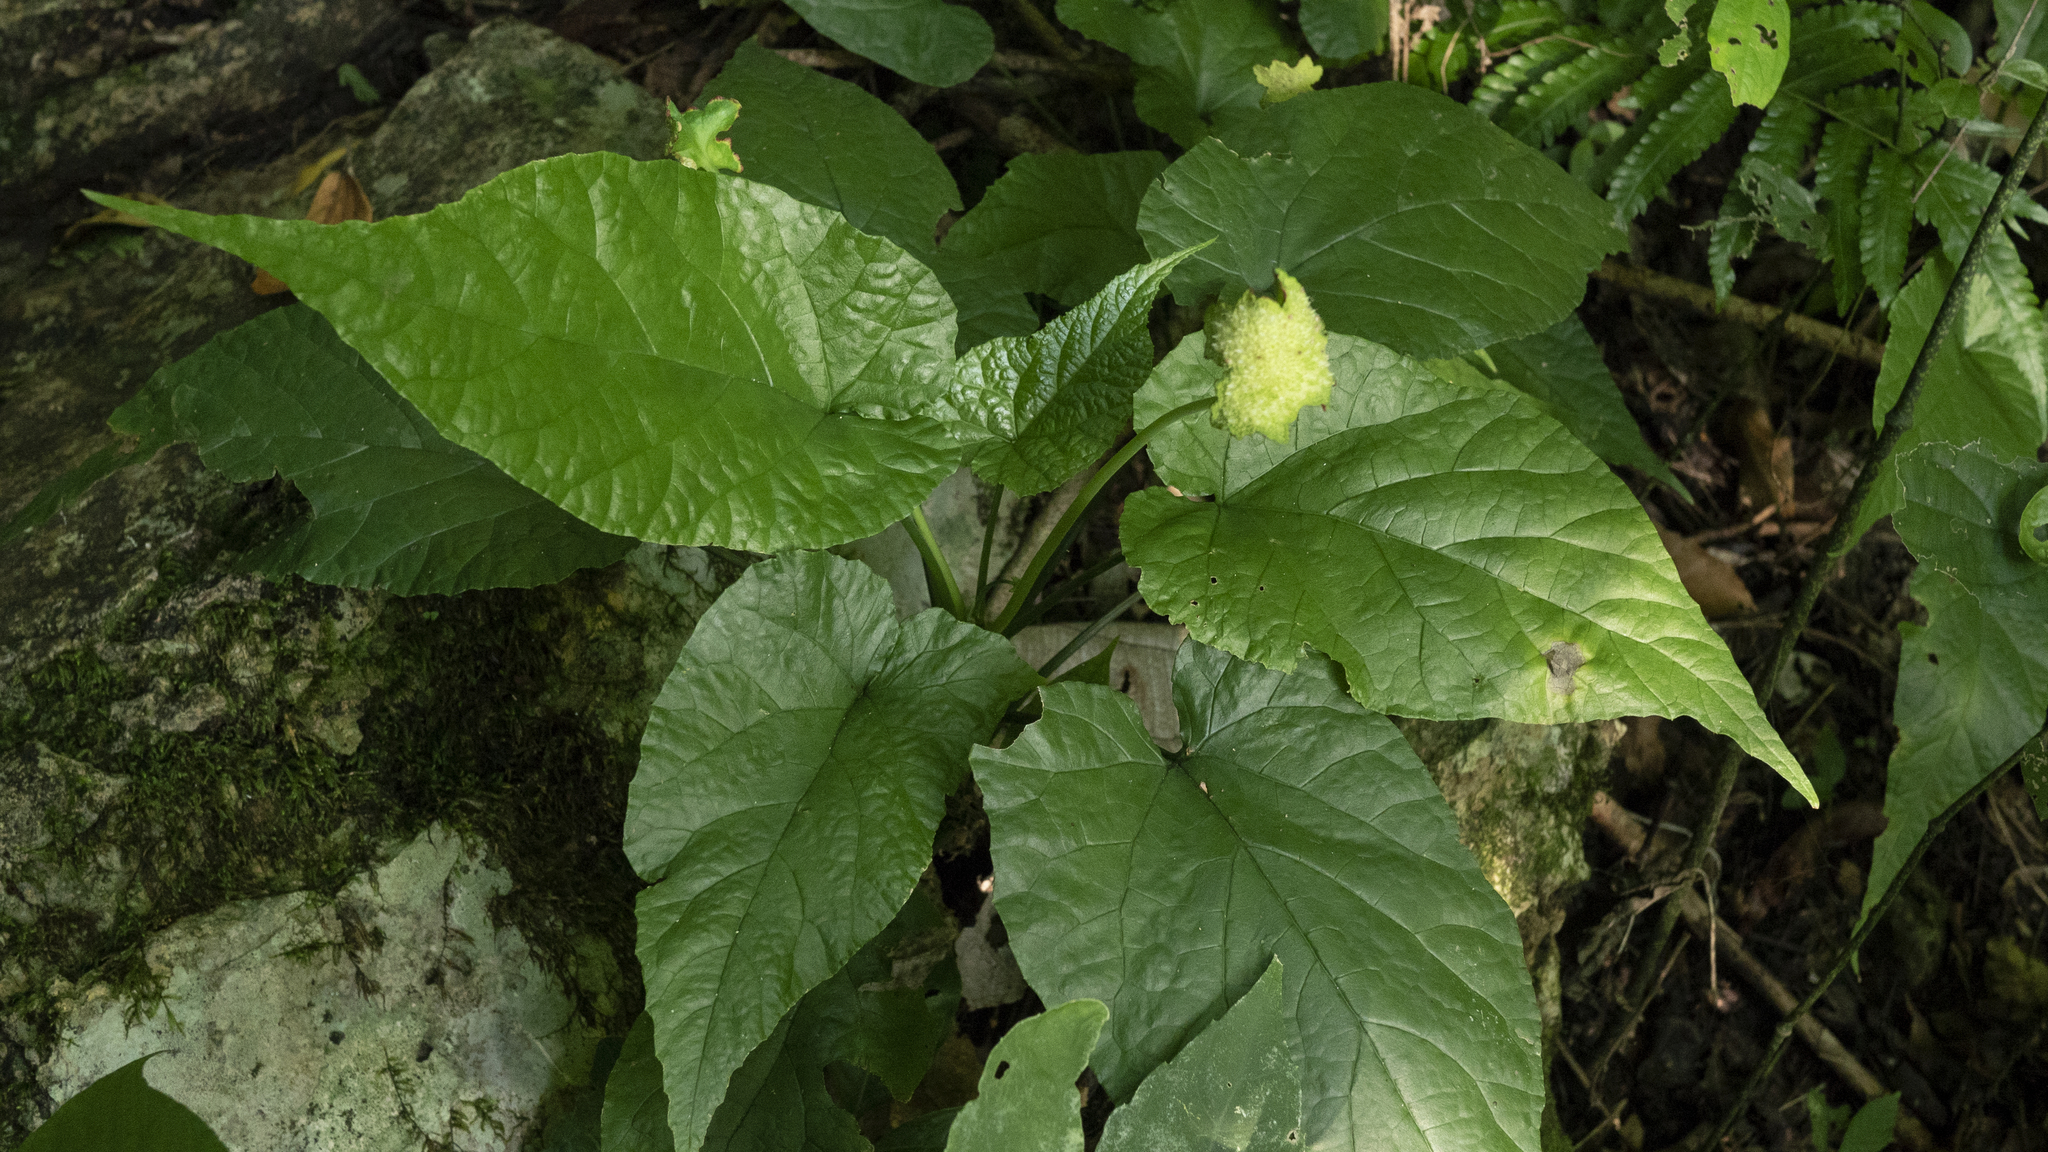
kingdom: Plantae
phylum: Tracheophyta
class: Magnoliopsida
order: Rosales
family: Moraceae
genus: Dorstenia
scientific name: Dorstenia contrajerva
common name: Tusilla
